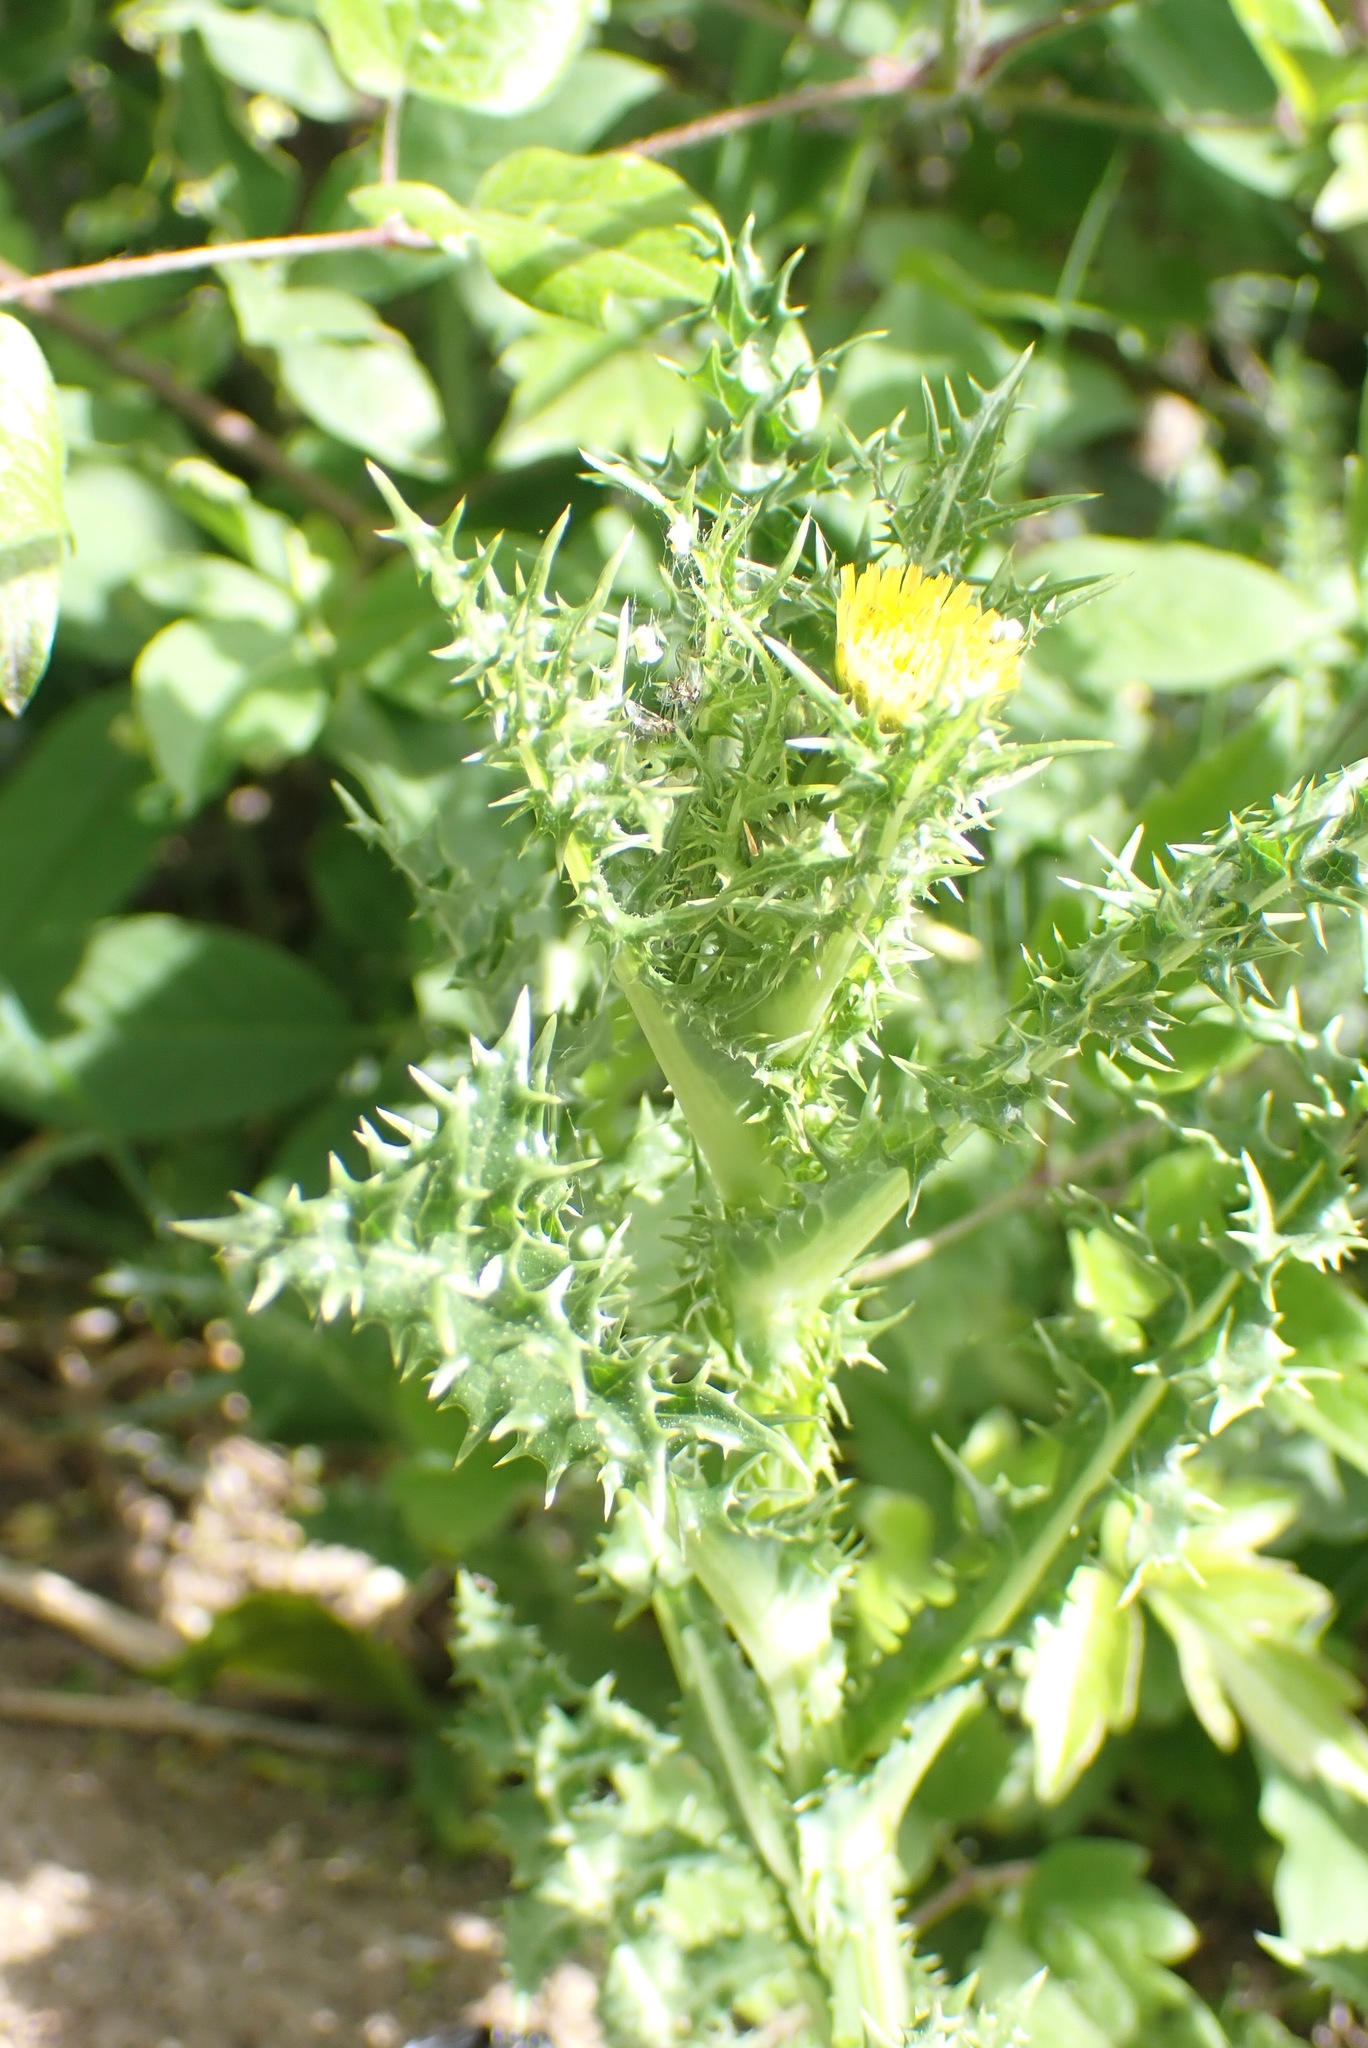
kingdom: Plantae
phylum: Tracheophyta
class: Magnoliopsida
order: Asterales
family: Asteraceae
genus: Sonchus
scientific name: Sonchus asper
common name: Prickly sow-thistle
